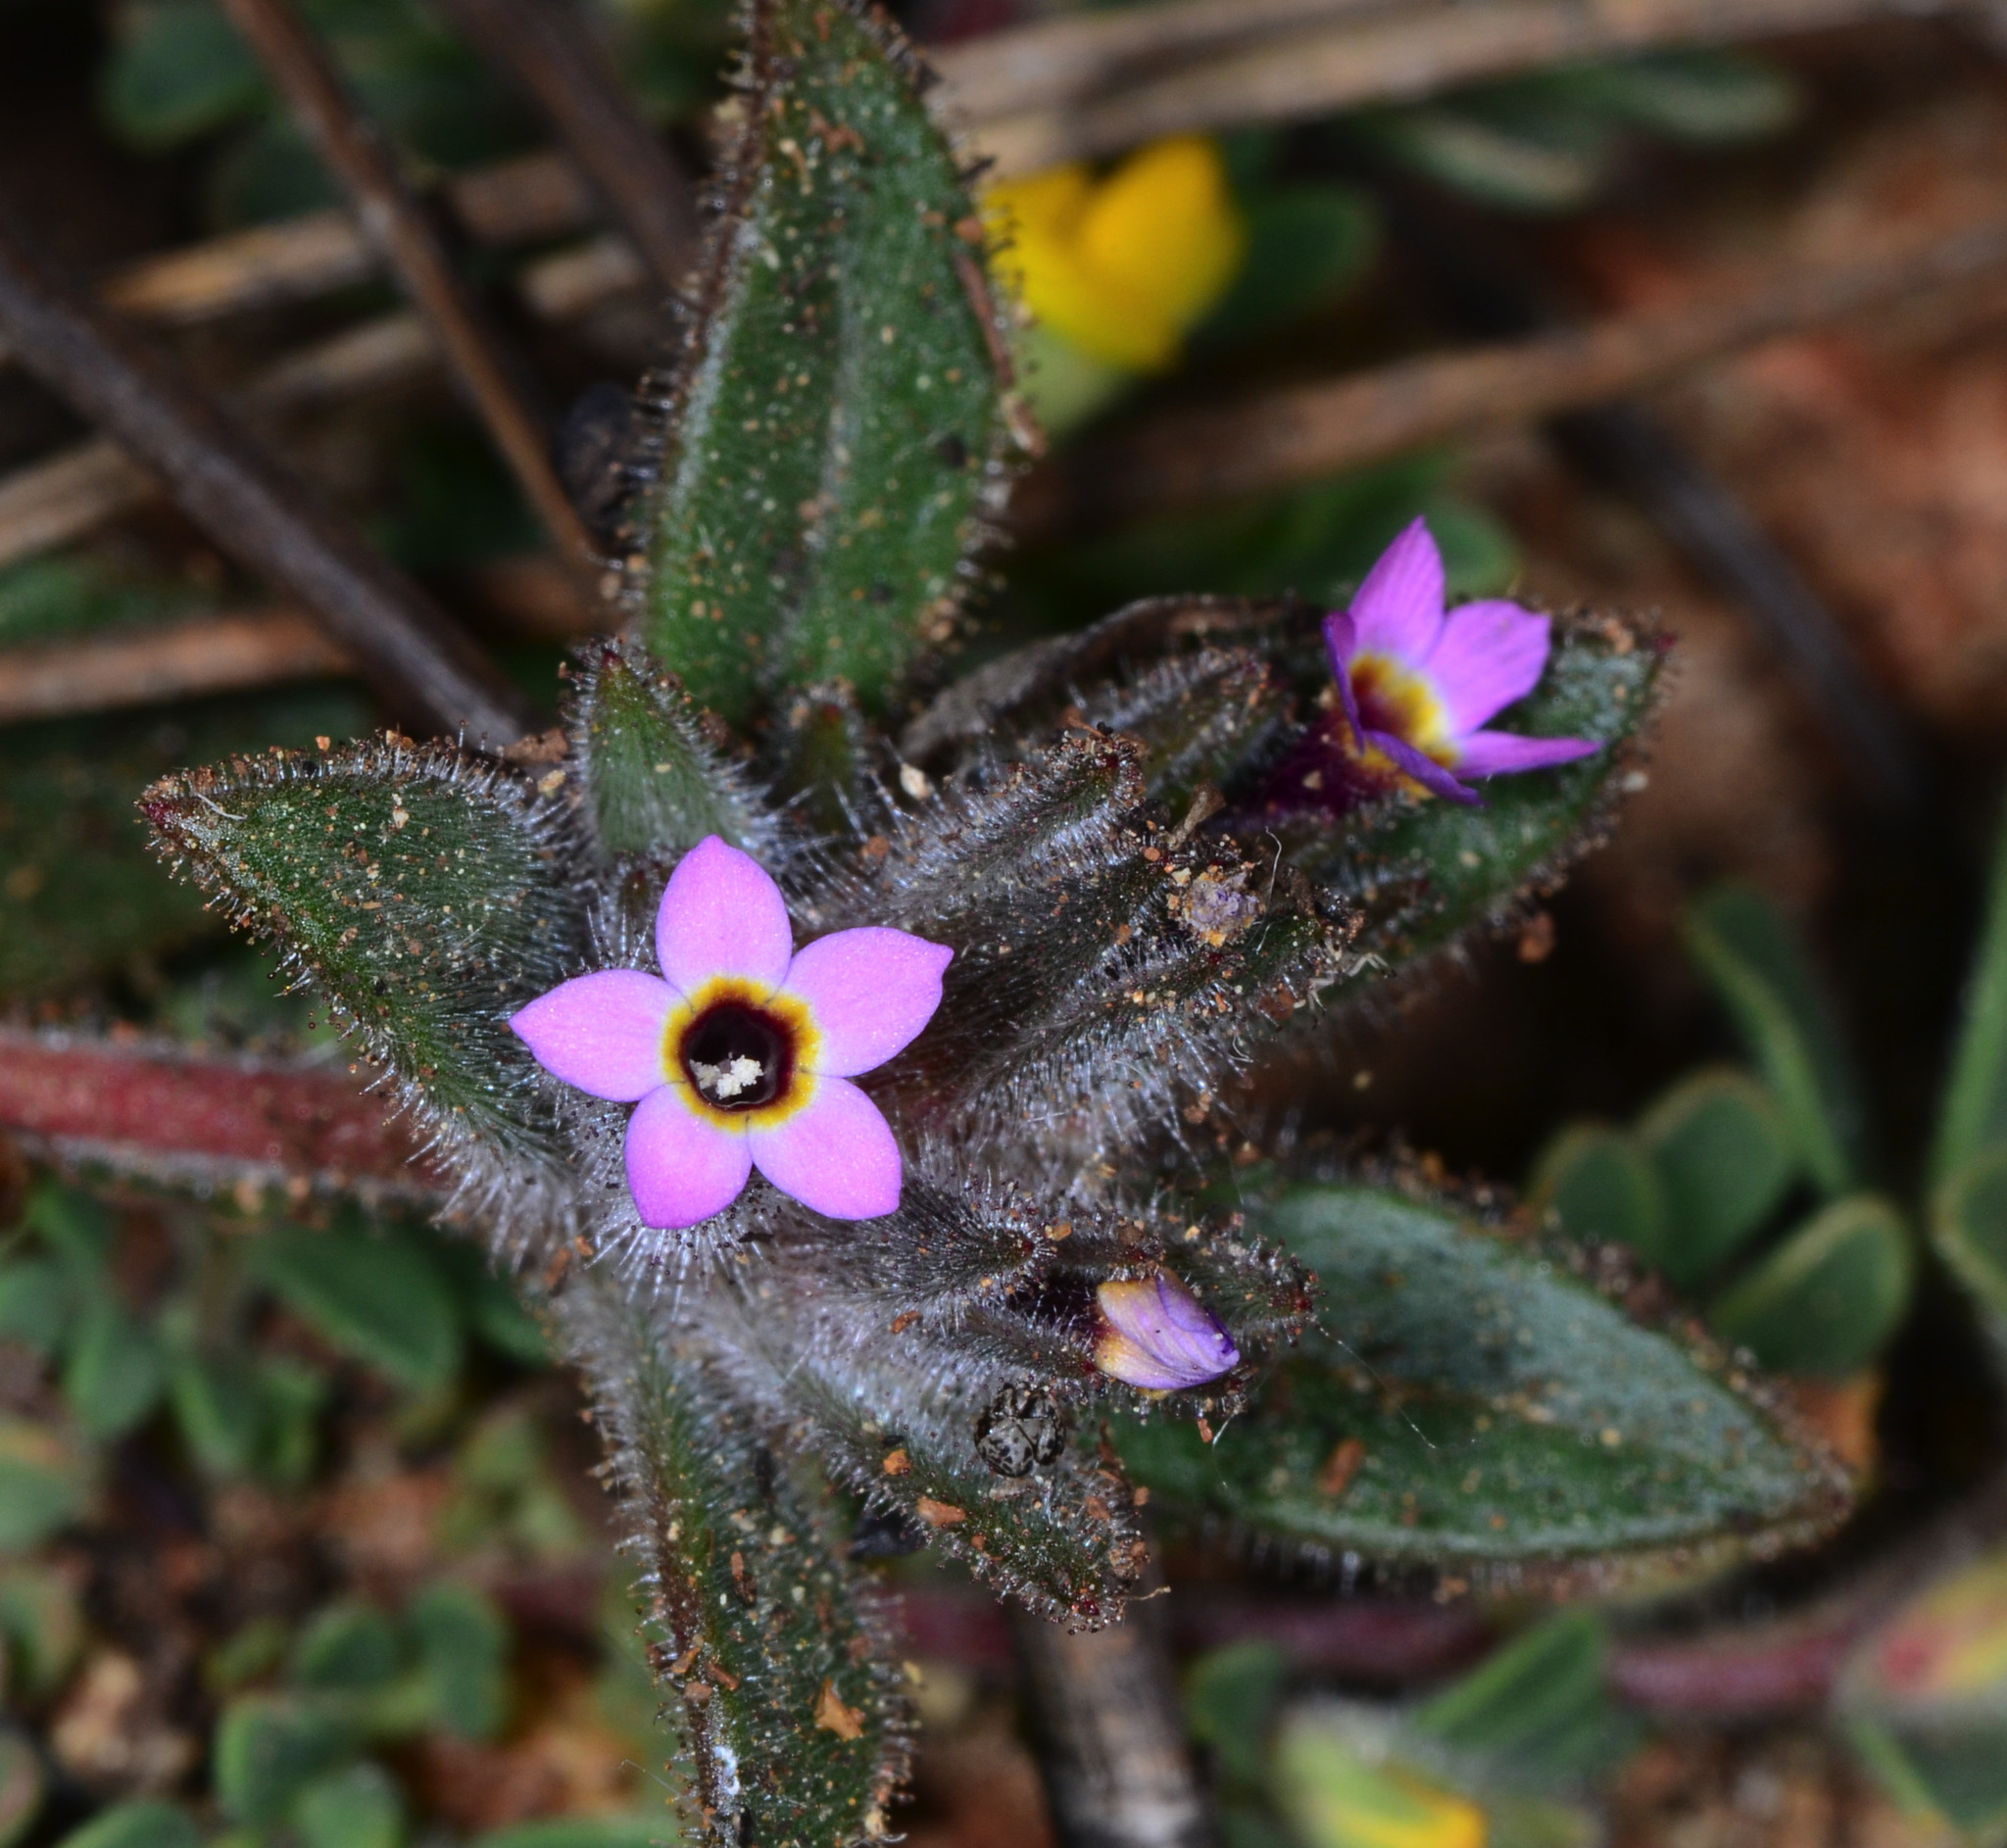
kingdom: Plantae
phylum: Tracheophyta
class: Magnoliopsida
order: Ericales
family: Polemoniaceae
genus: Collomia
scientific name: Collomia diversifolia
